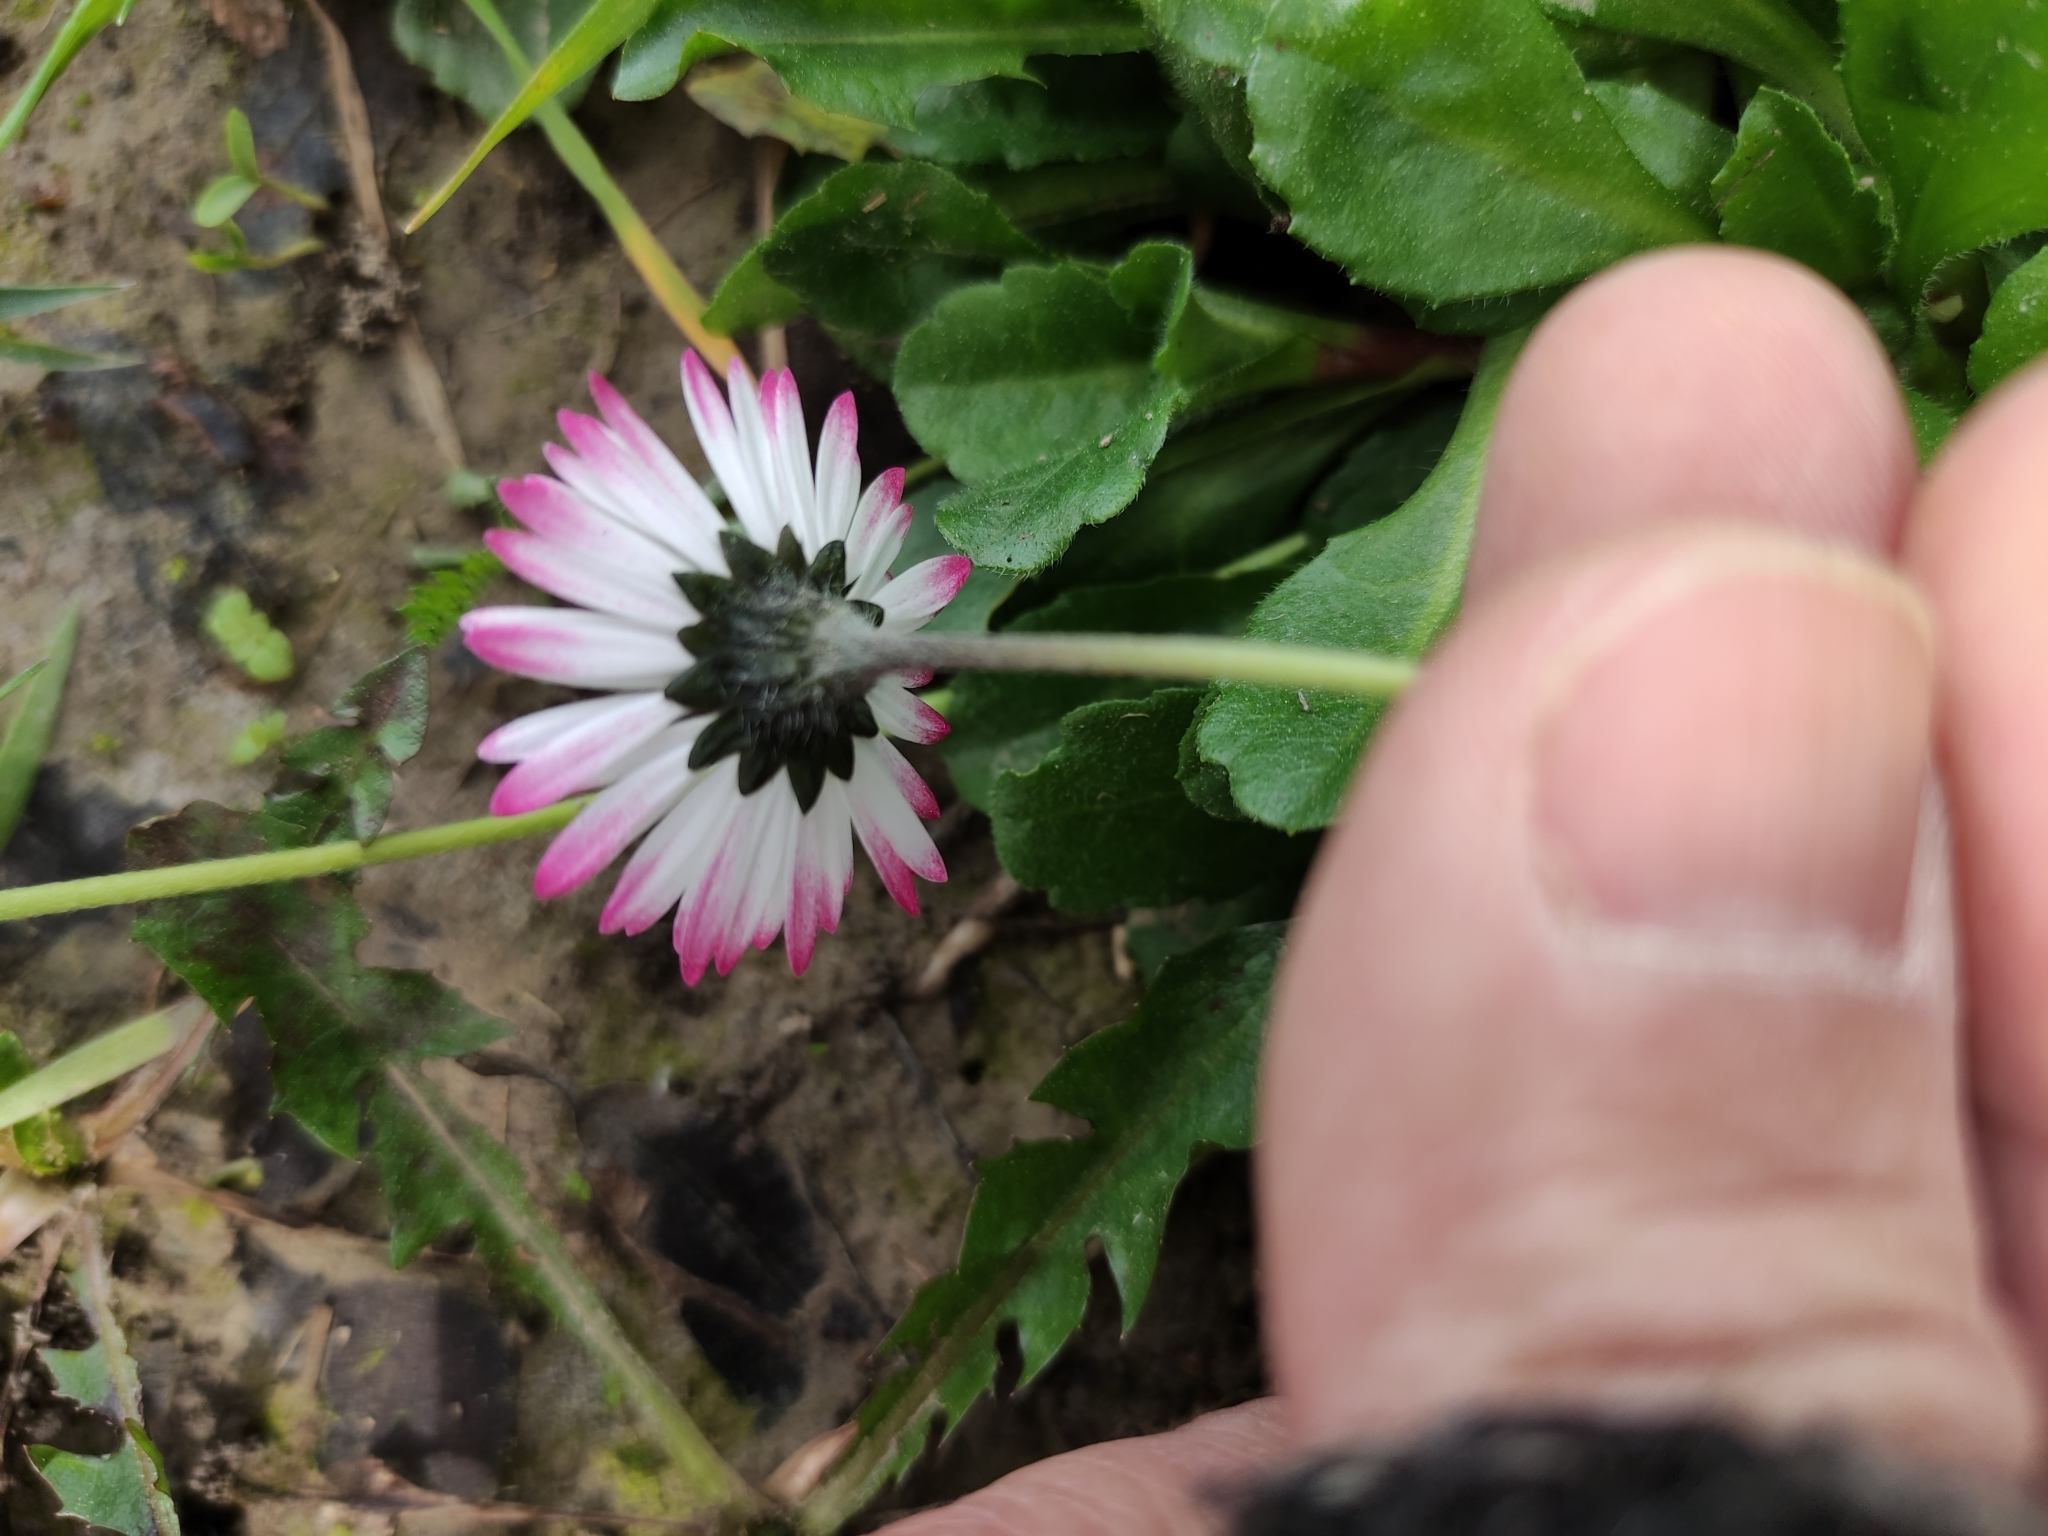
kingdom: Plantae
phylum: Tracheophyta
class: Magnoliopsida
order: Asterales
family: Asteraceae
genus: Bellis
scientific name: Bellis perennis
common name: Lawndaisy
